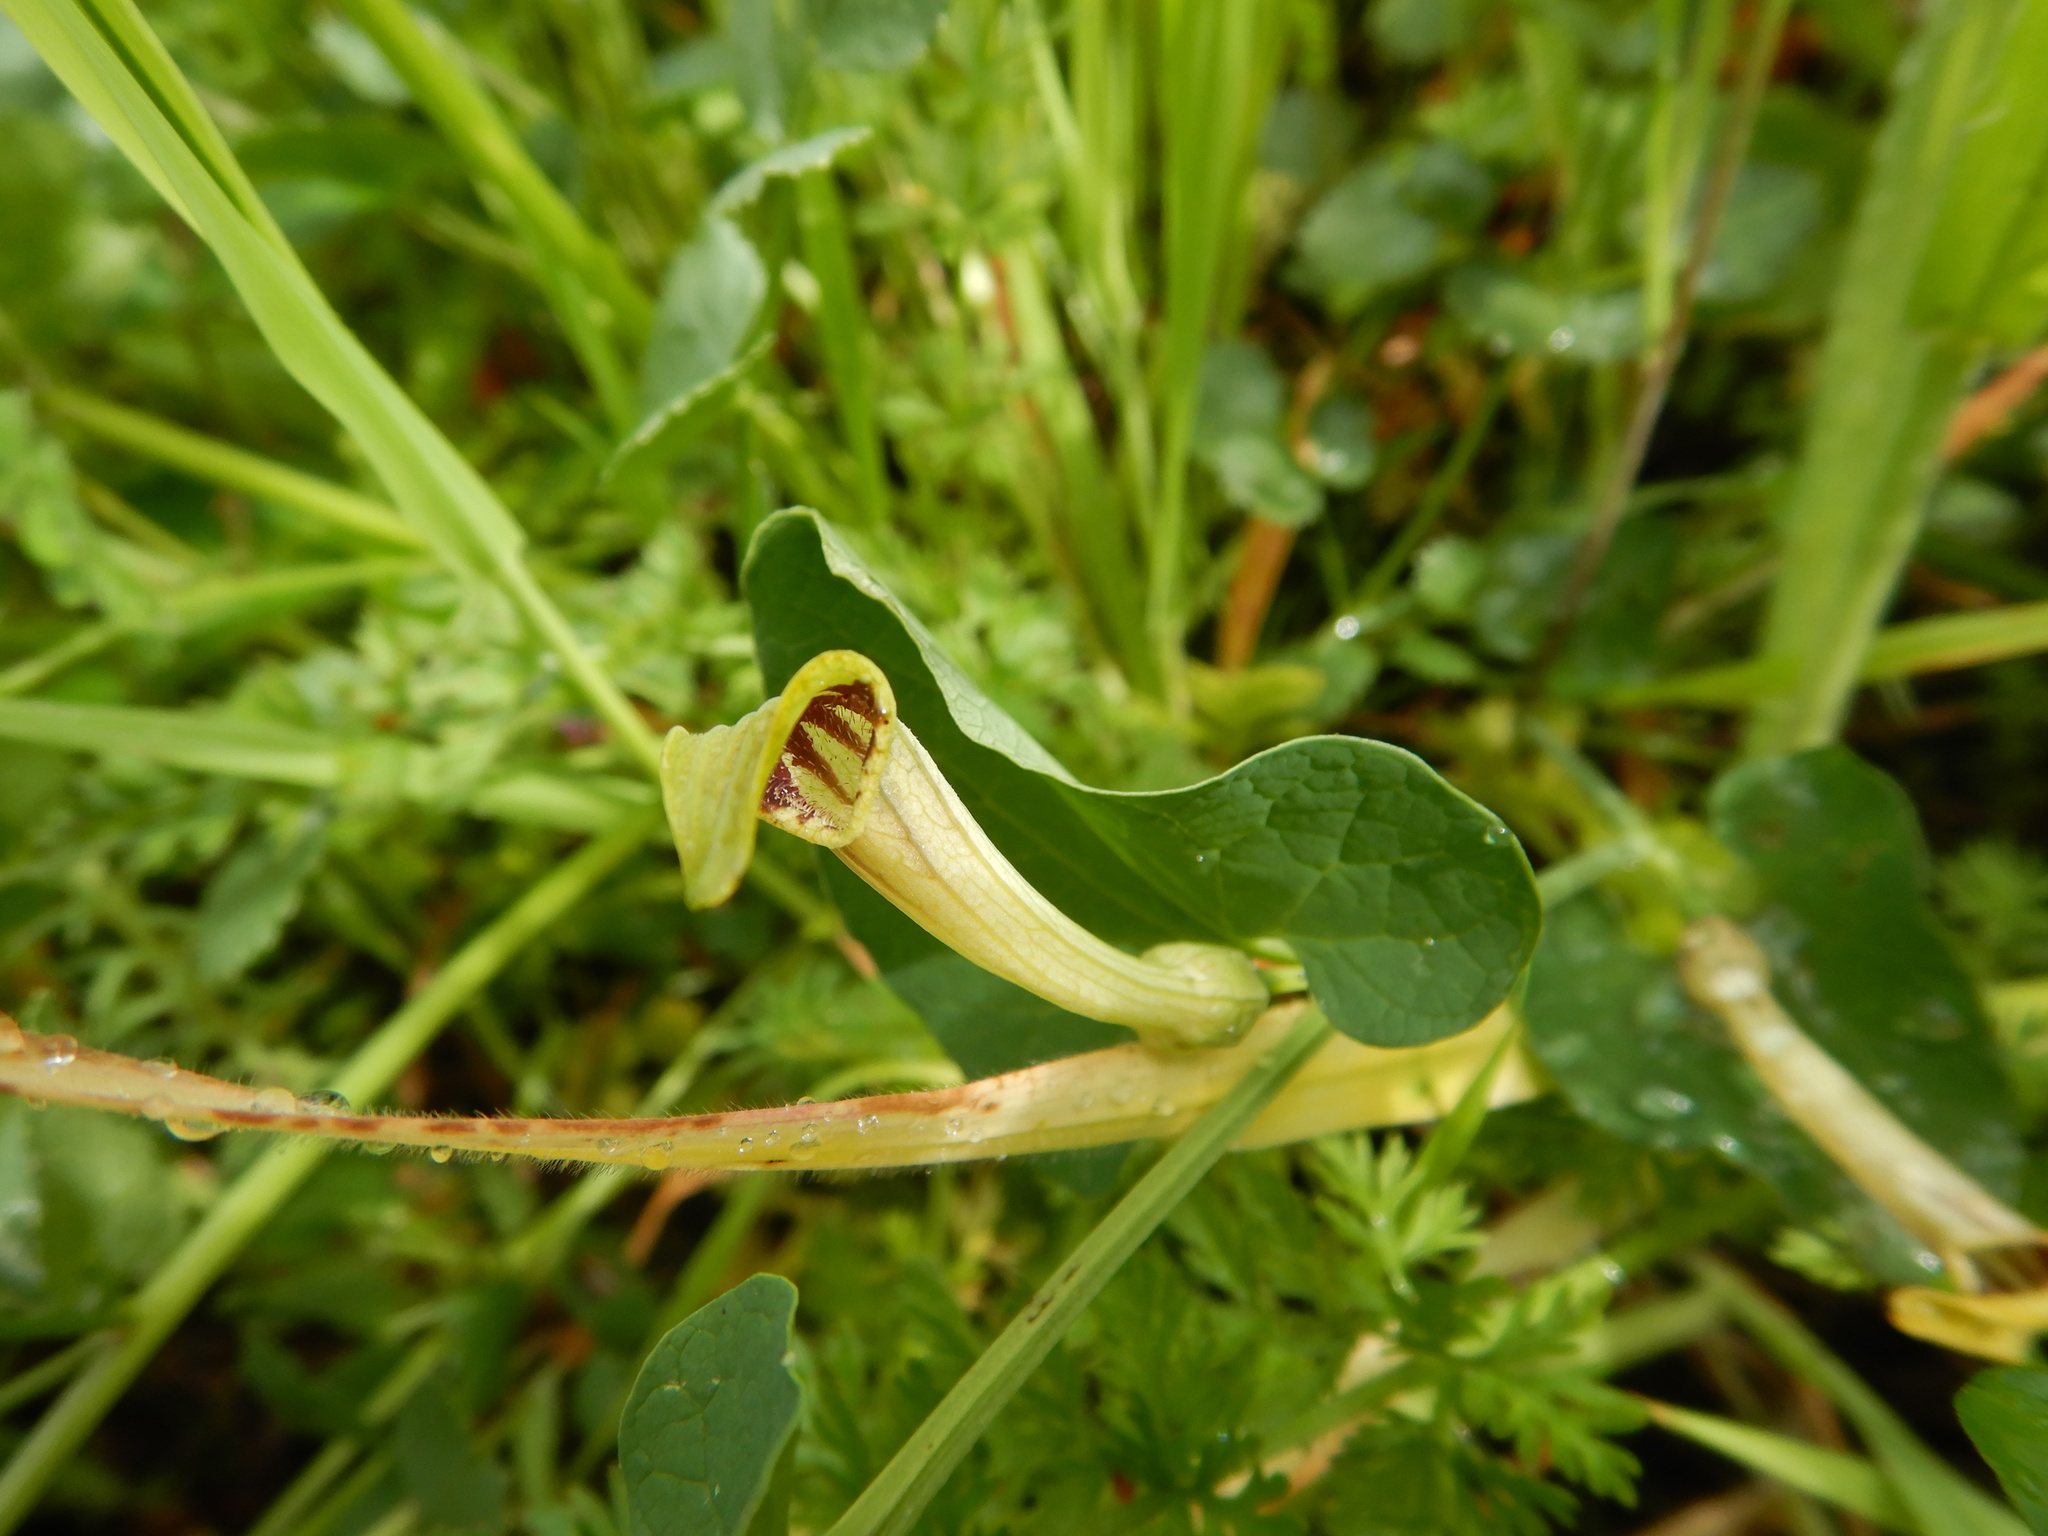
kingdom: Plantae
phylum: Tracheophyta
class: Magnoliopsida
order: Piperales
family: Aristolochiaceae
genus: Aristolochia
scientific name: Aristolochia paucinervis
